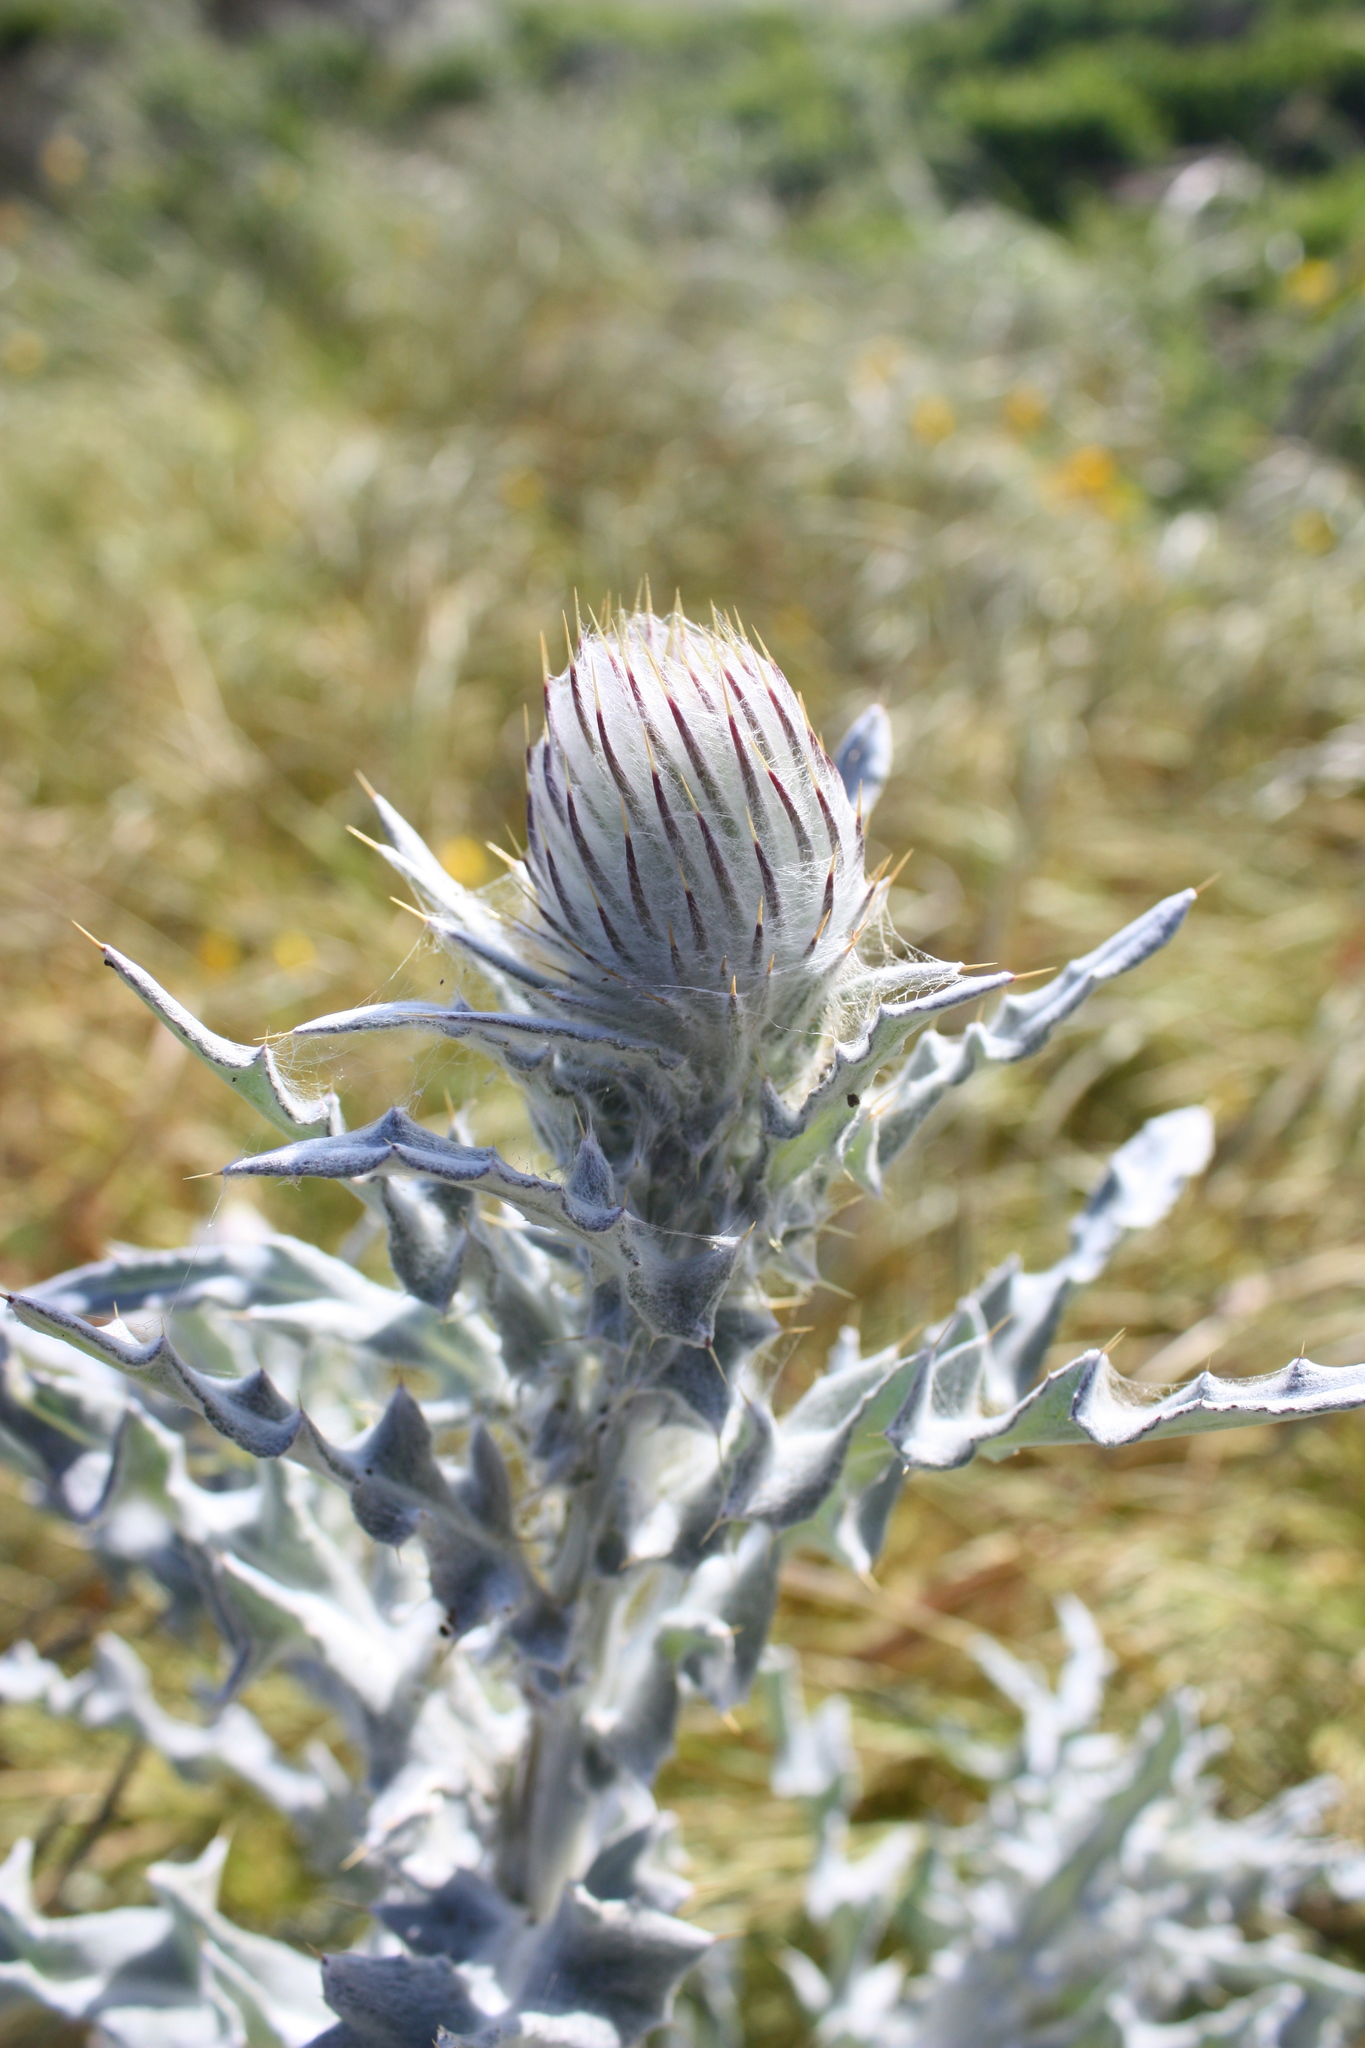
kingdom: Plantae
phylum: Tracheophyta
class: Magnoliopsida
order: Asterales
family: Asteraceae
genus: Cirsium
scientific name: Cirsium occidentale
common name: Western thistle
